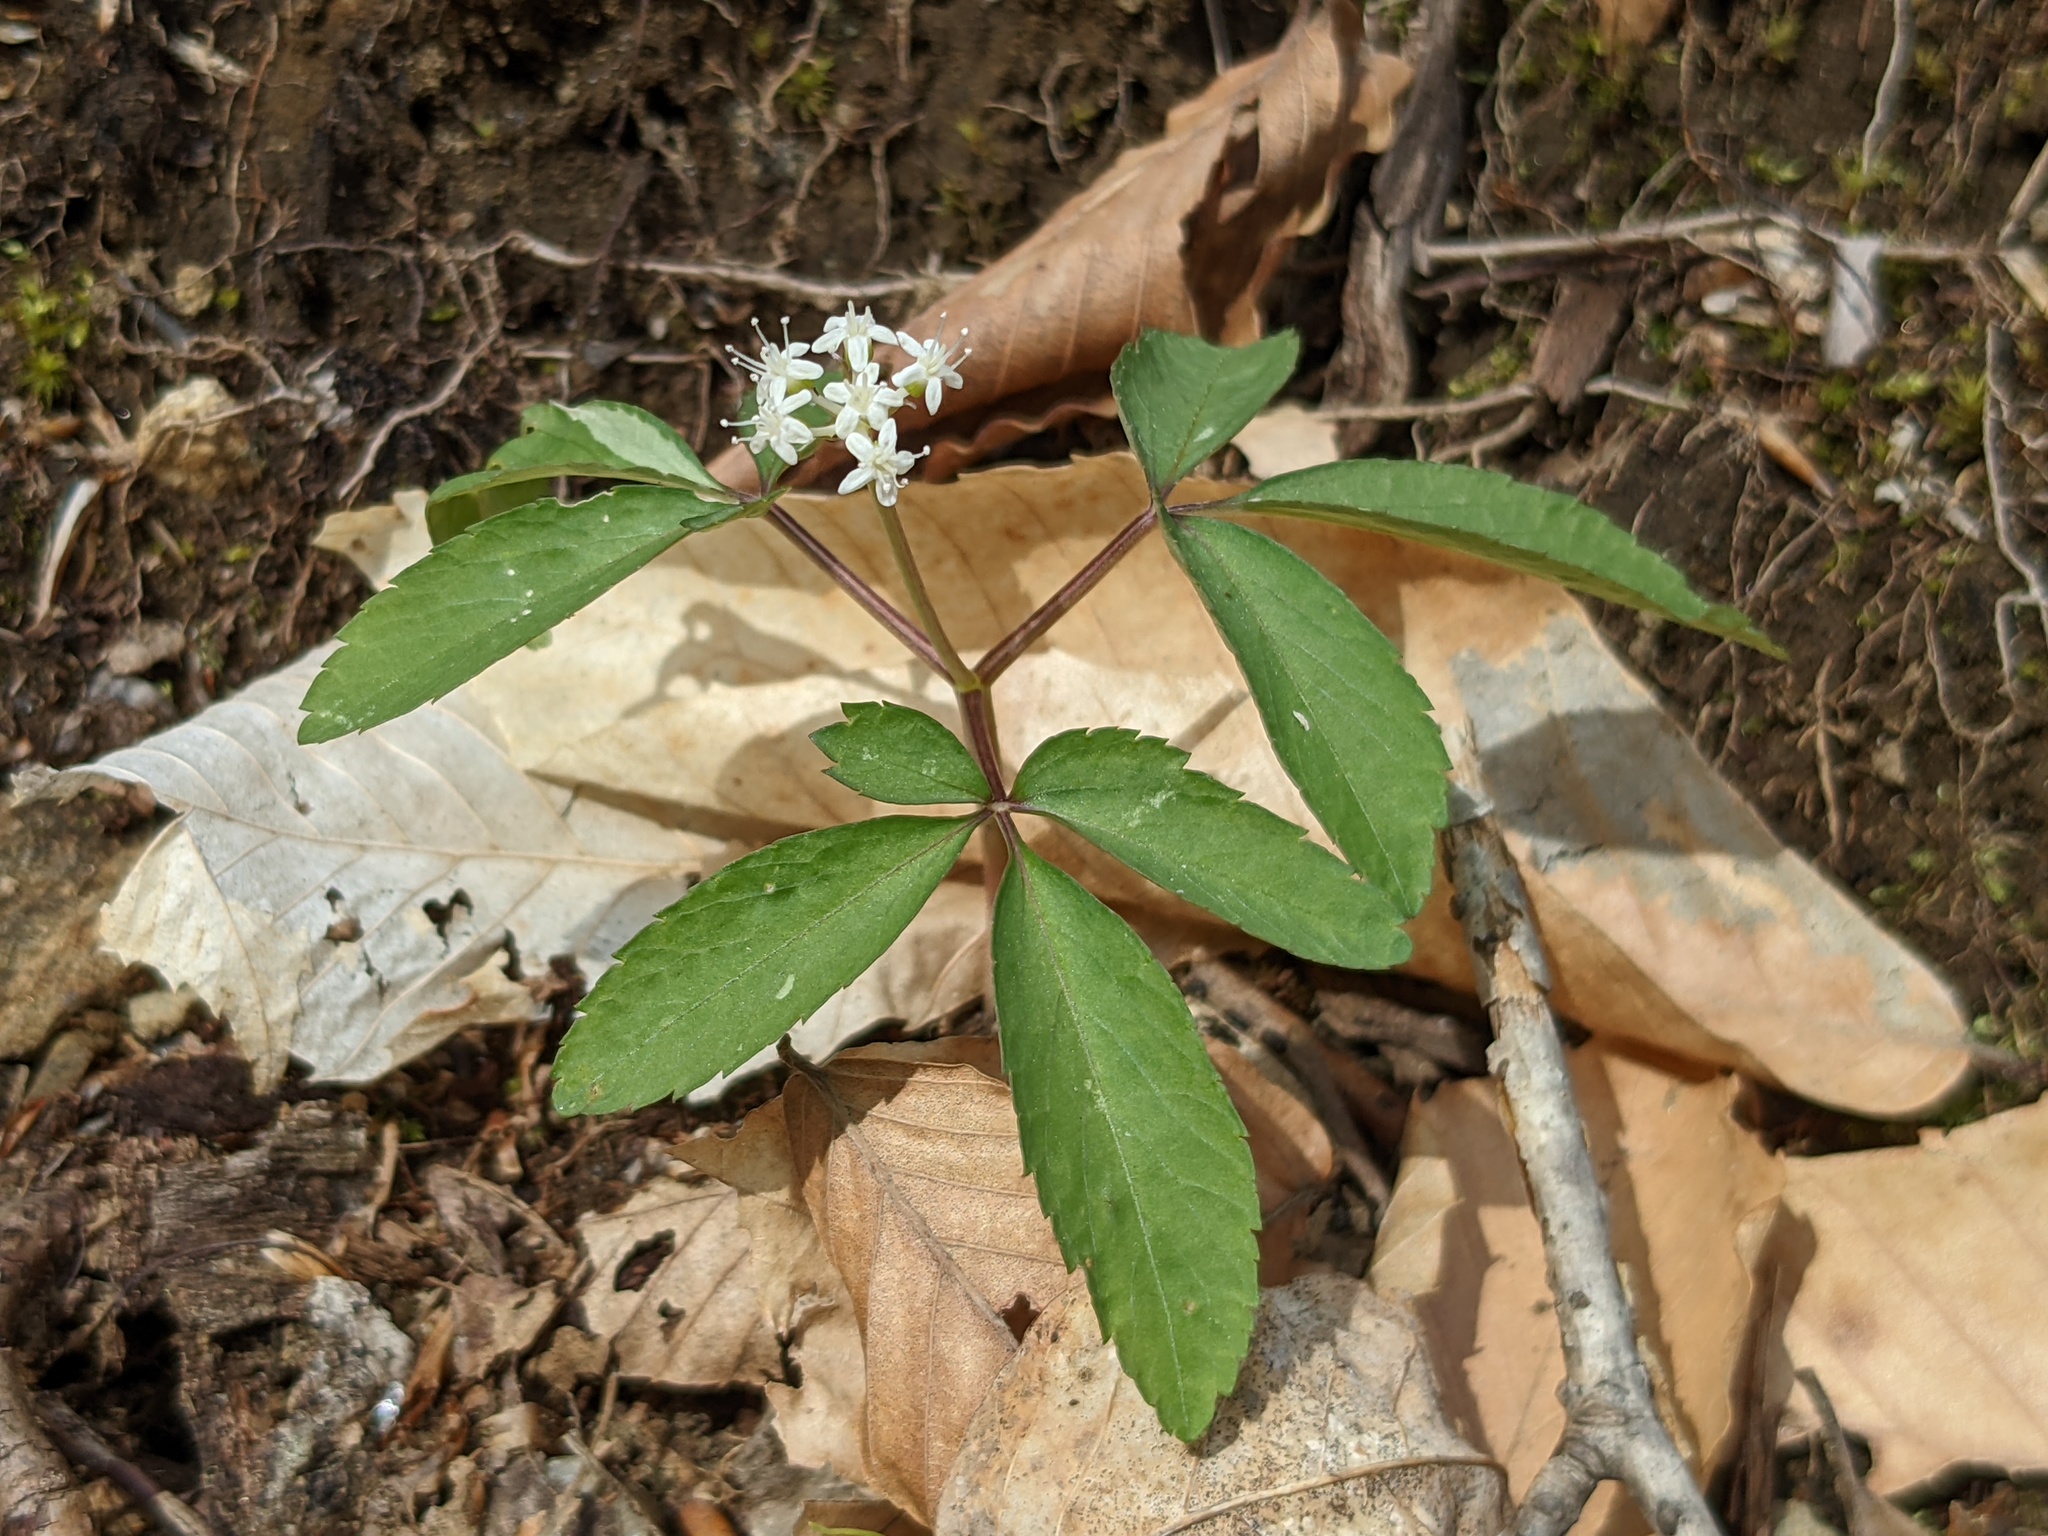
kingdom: Plantae
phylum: Tracheophyta
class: Magnoliopsida
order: Apiales
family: Araliaceae
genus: Panax
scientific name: Panax trifolius
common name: Dwarf ginseng
